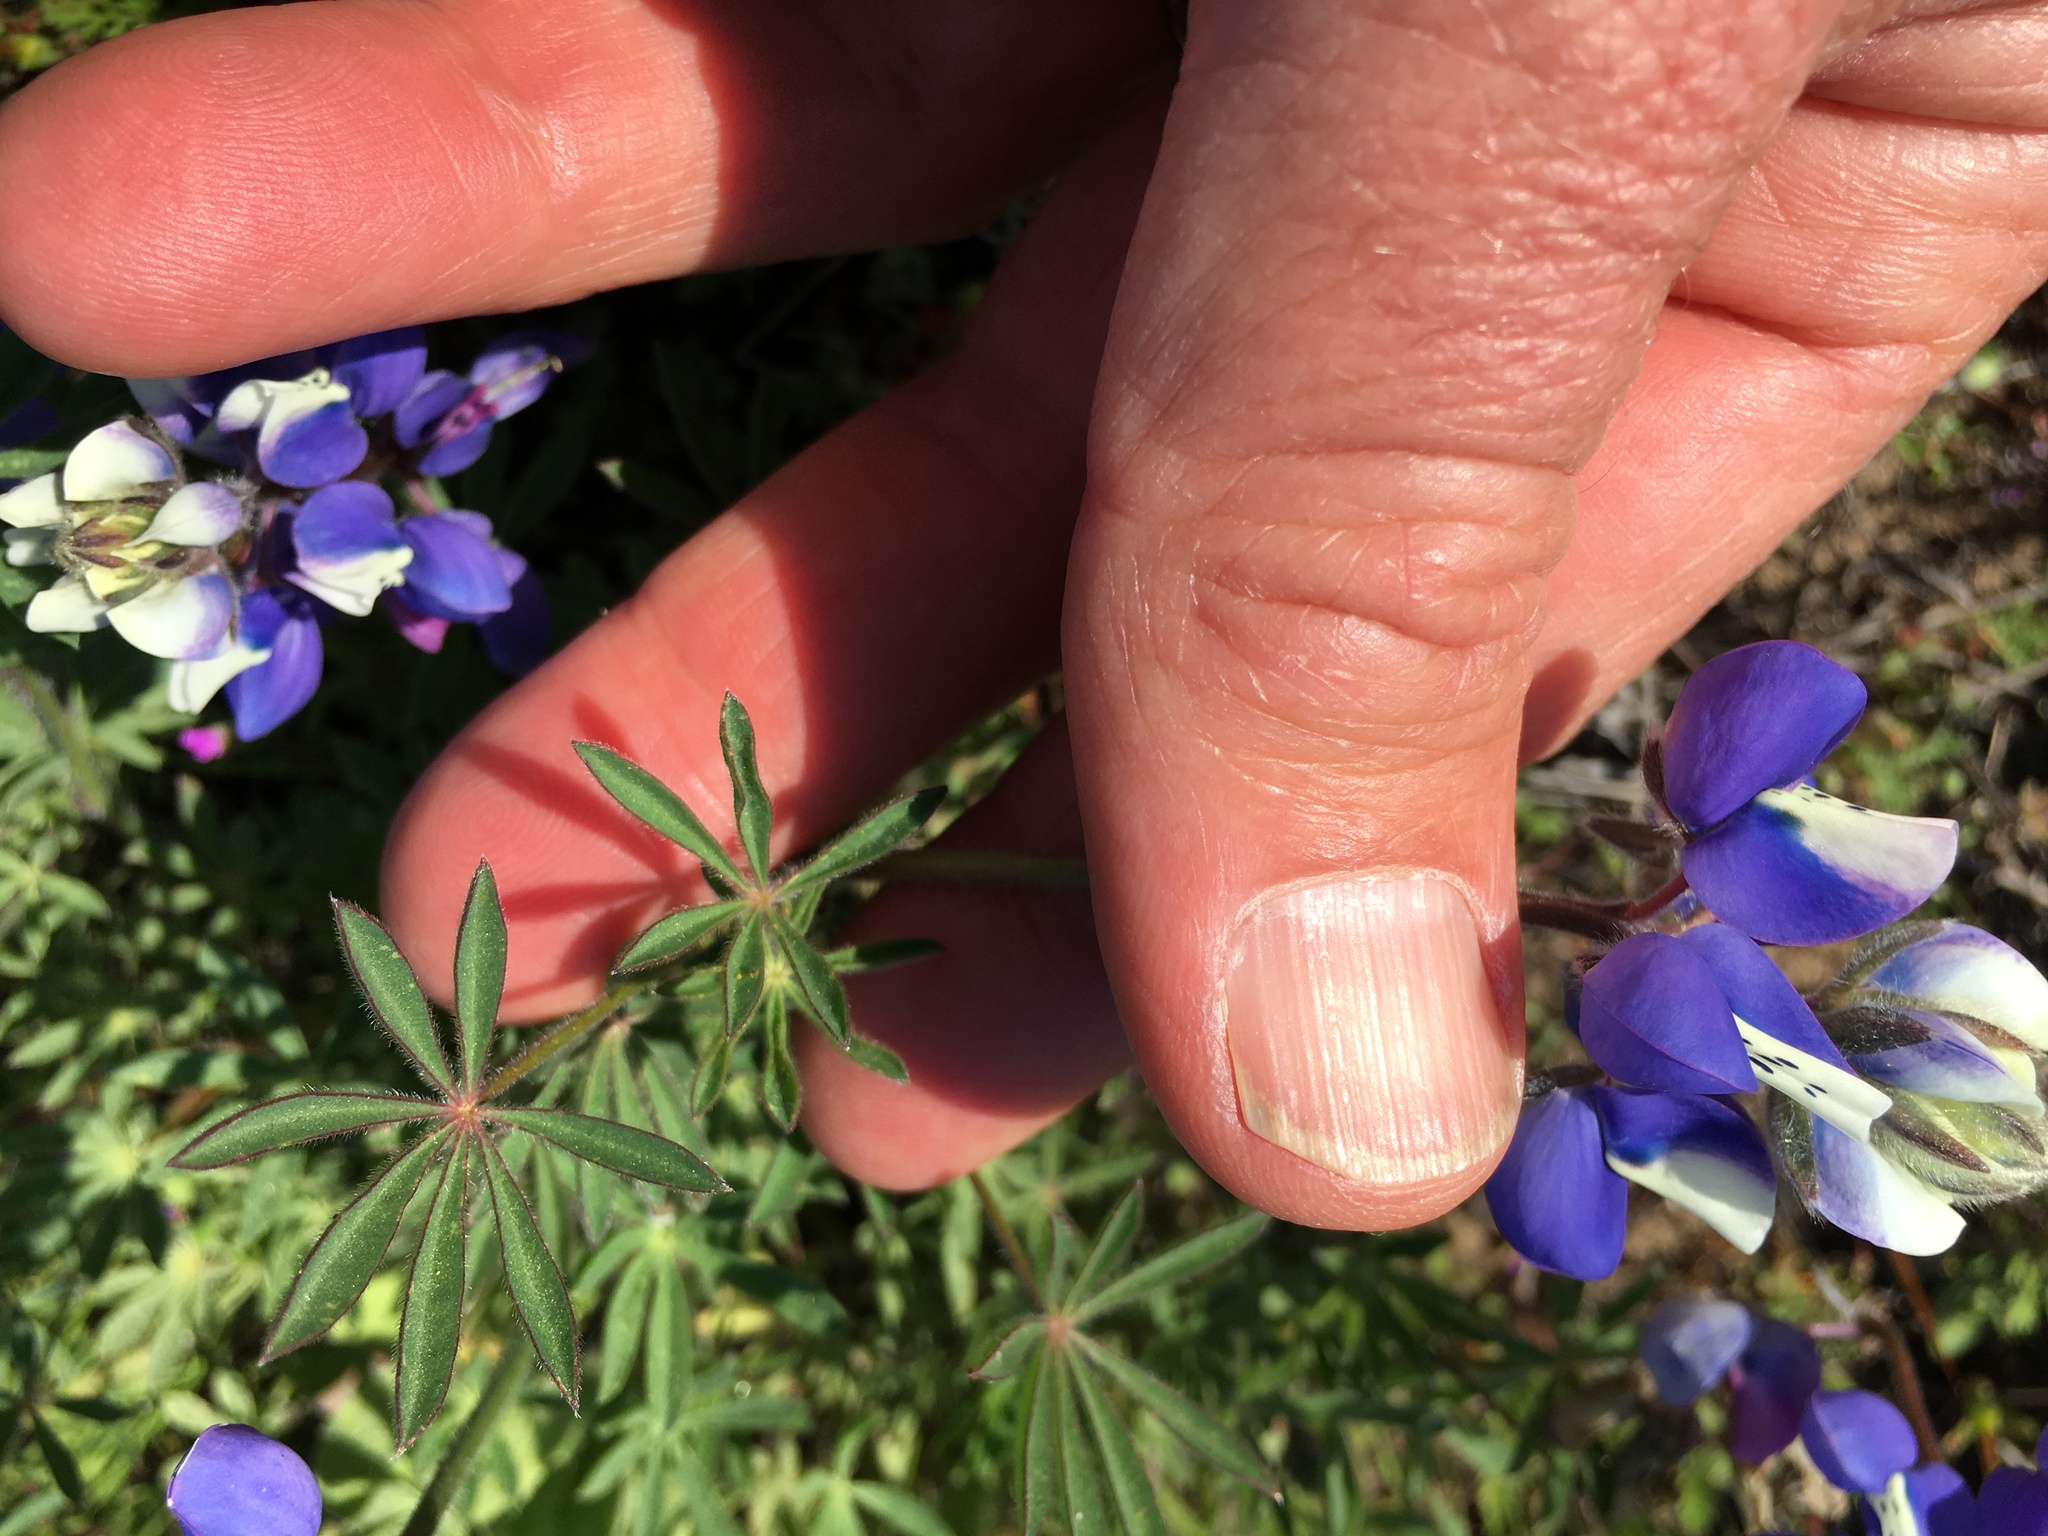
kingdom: Plantae
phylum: Tracheophyta
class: Magnoliopsida
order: Fabales
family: Fabaceae
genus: Lupinus
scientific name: Lupinus nanus
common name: Orean blue lupin
